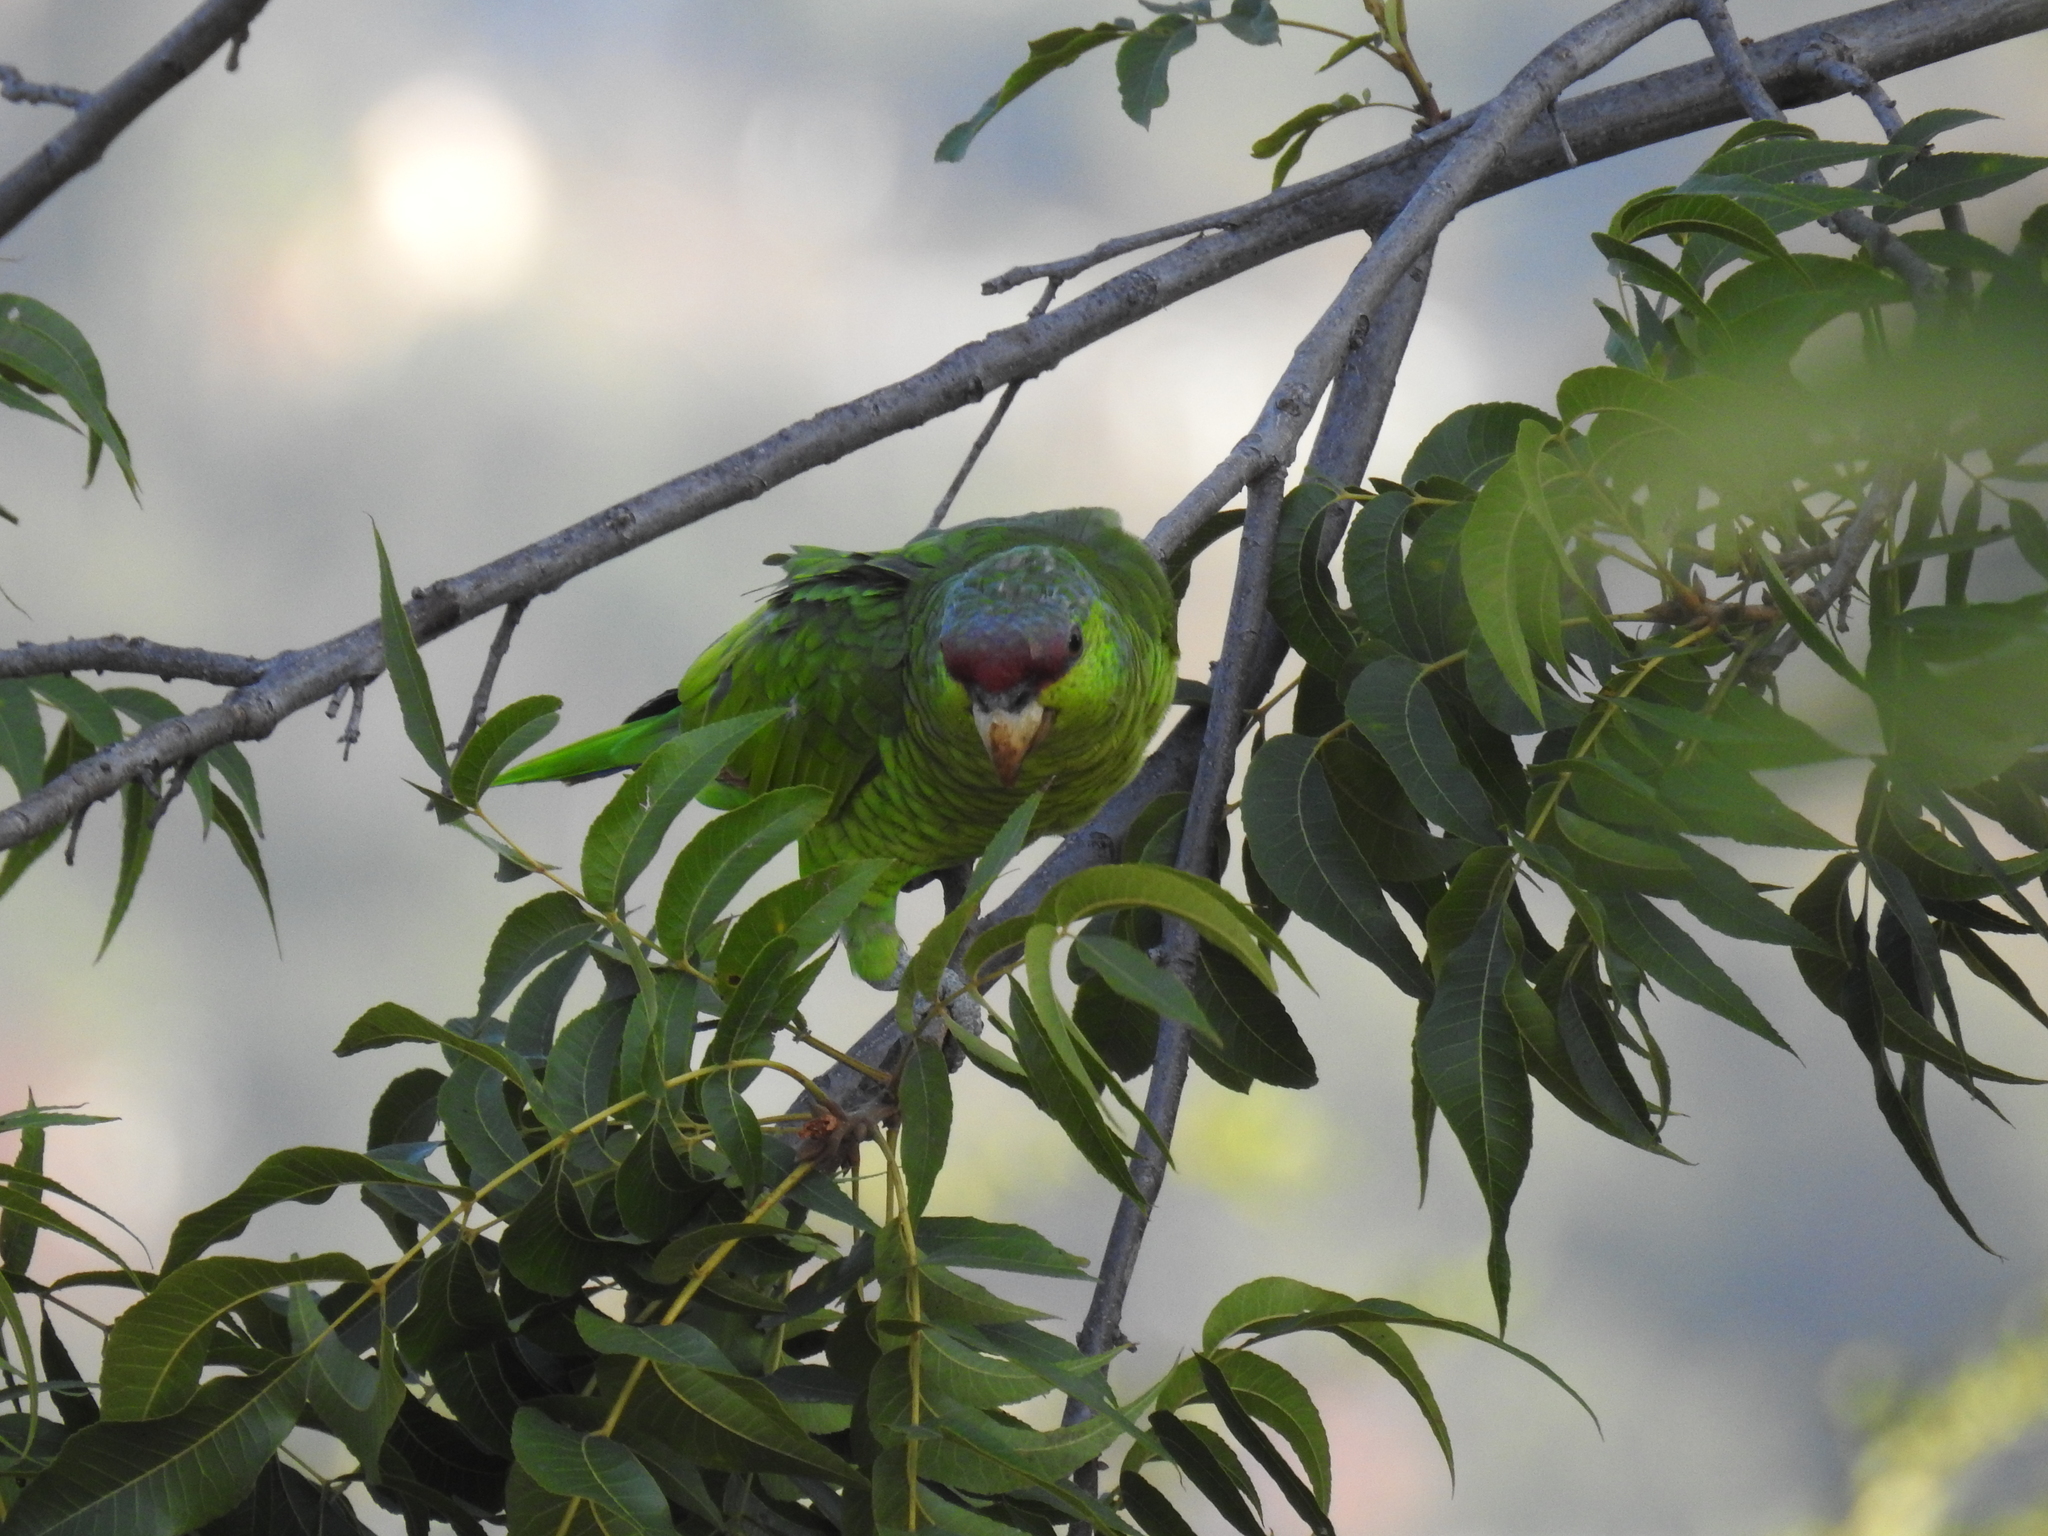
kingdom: Animalia
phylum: Chordata
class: Aves
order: Psittaciformes
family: Psittacidae
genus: Amazona
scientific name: Amazona finschi
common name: Lilac-crowned amazon
